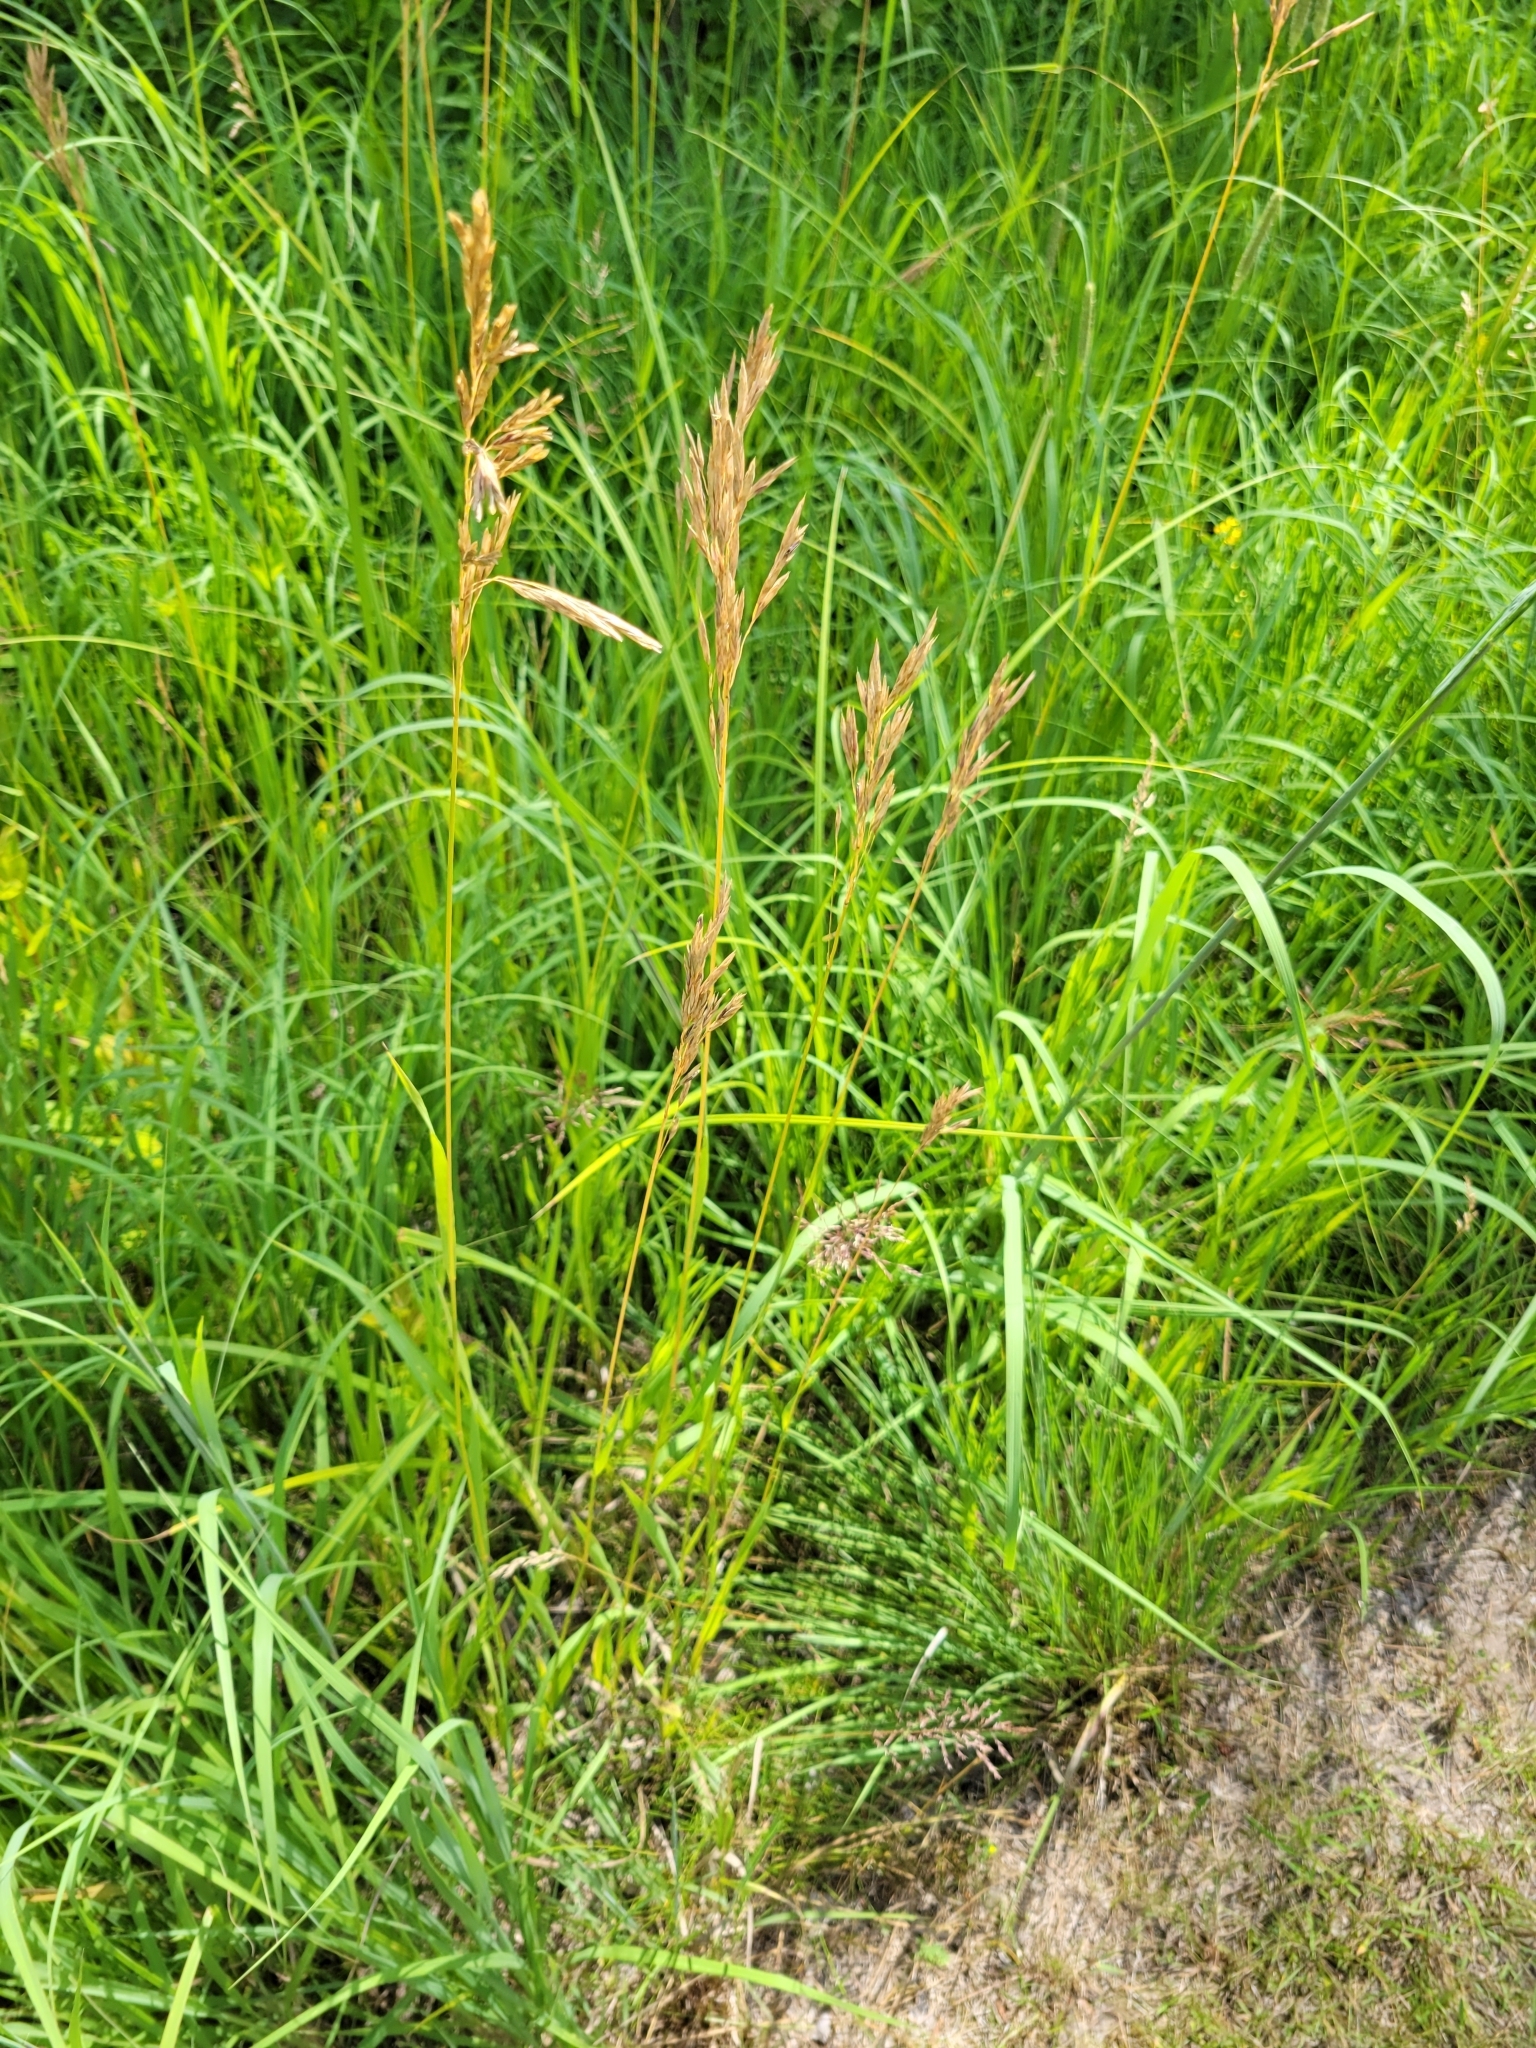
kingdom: Plantae
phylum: Tracheophyta
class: Liliopsida
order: Poales
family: Poaceae
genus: Bromus
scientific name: Bromus inermis
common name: Smooth brome
